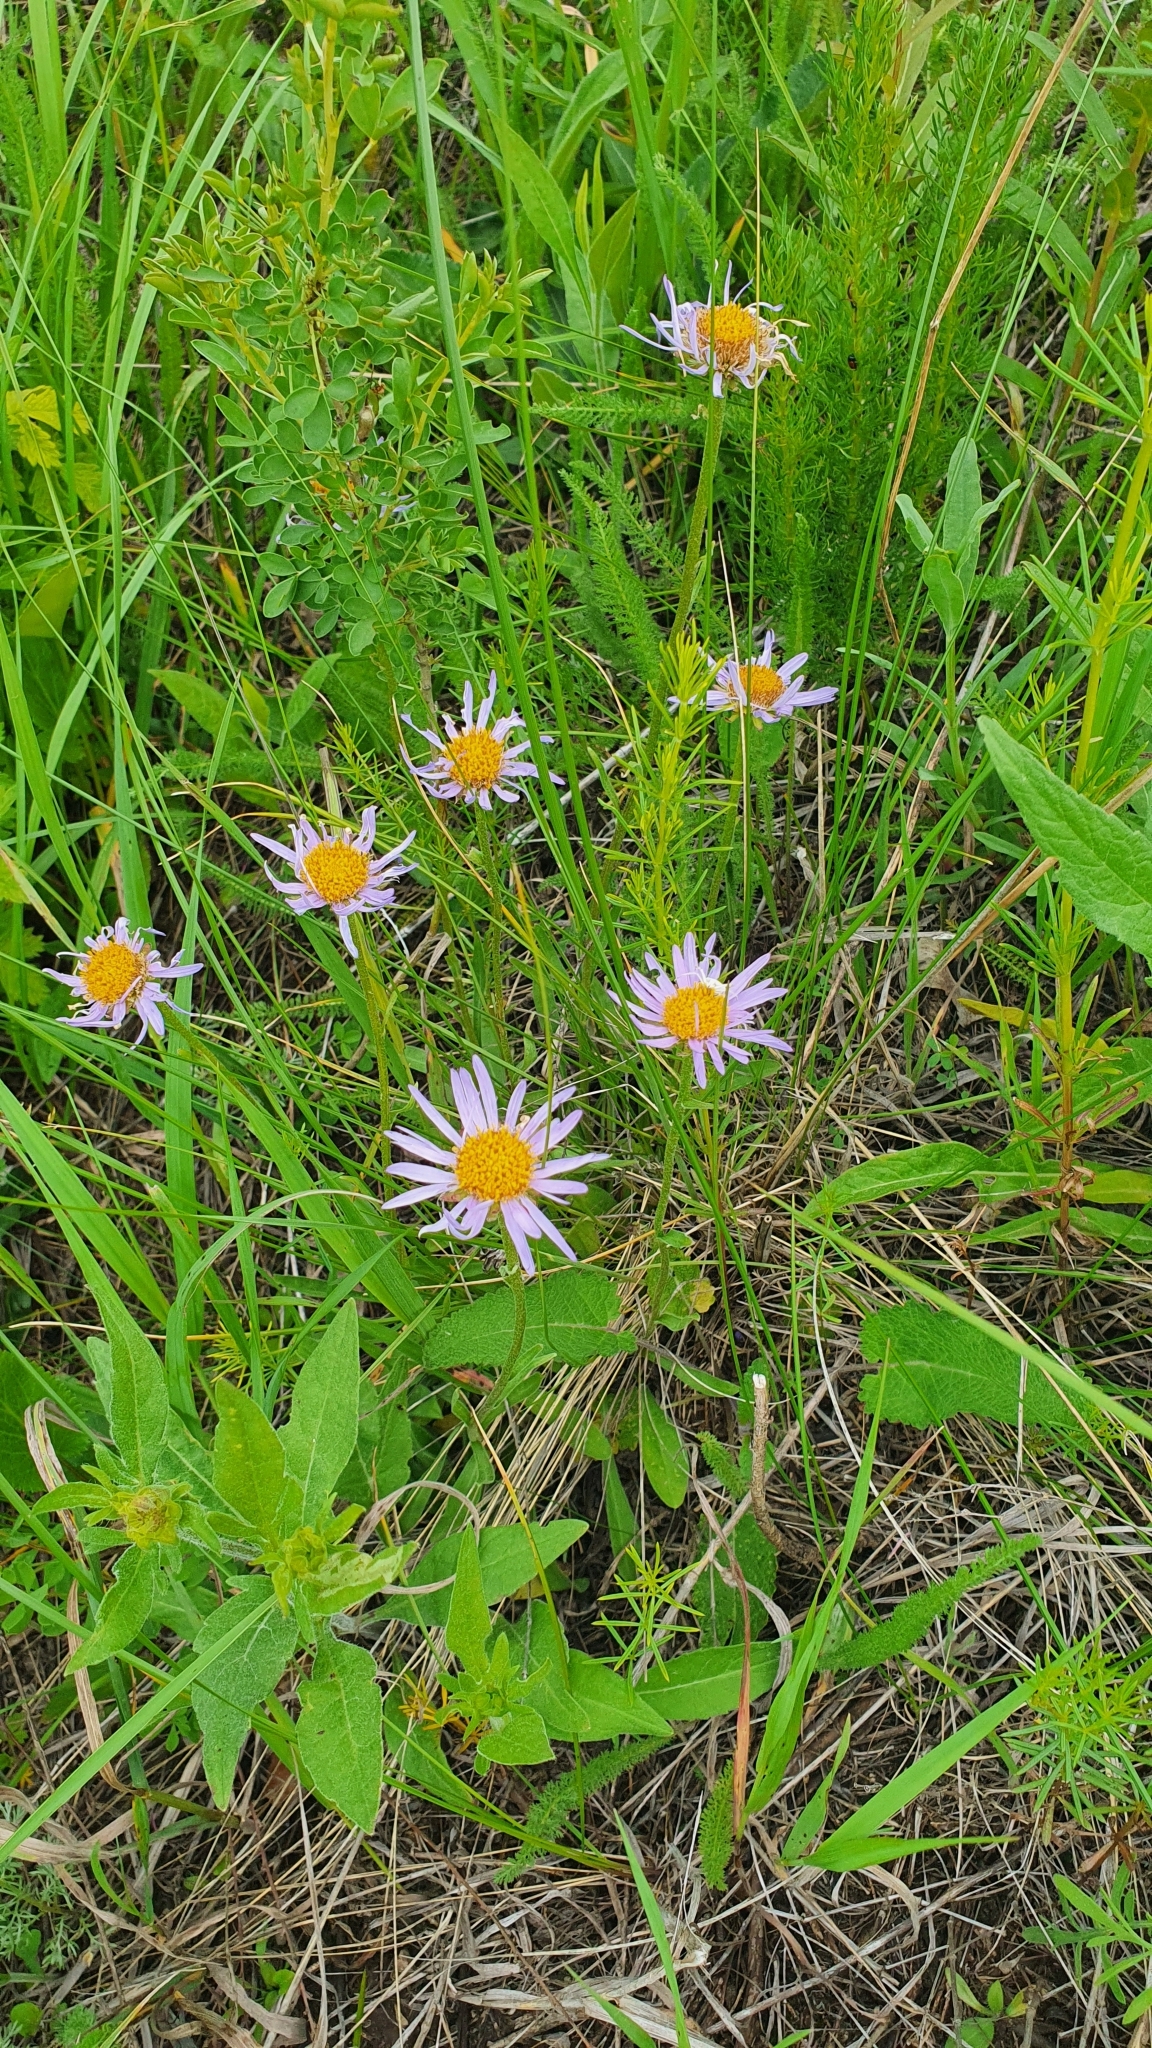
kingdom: Plantae
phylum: Tracheophyta
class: Magnoliopsida
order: Asterales
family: Asteraceae
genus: Aster
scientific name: Aster alpinus
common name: Alpine aster
